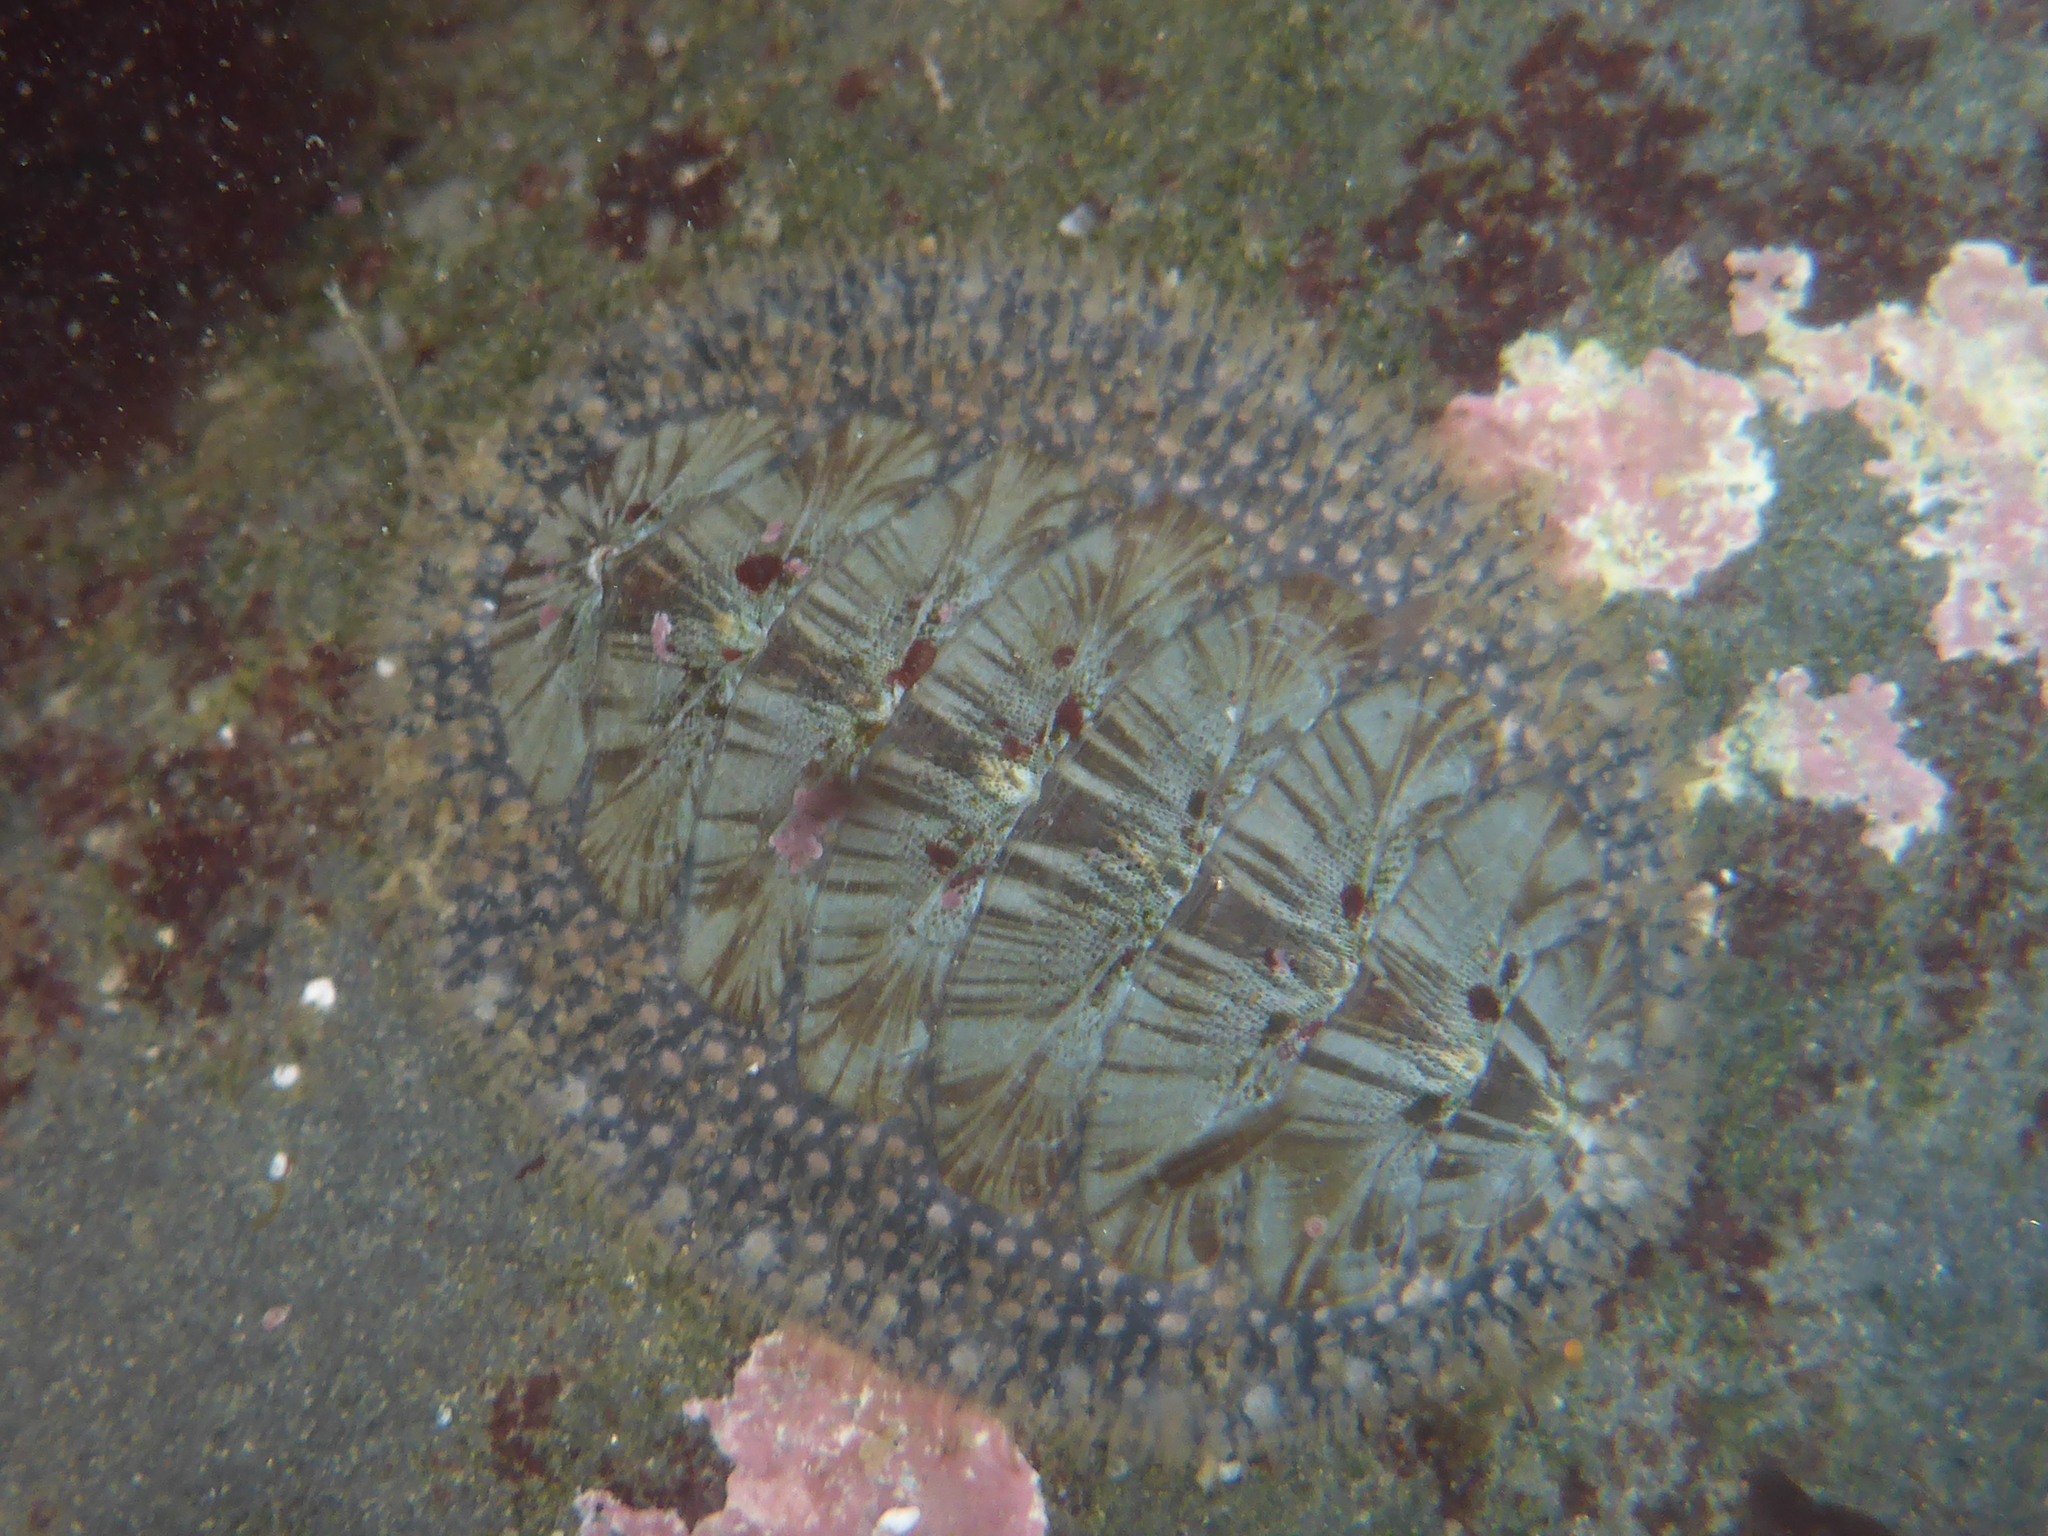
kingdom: Animalia
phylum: Mollusca
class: Polyplacophora
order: Chitonida
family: Mopaliidae
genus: Mopalia
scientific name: Mopalia lignosa
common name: Woody chiton
